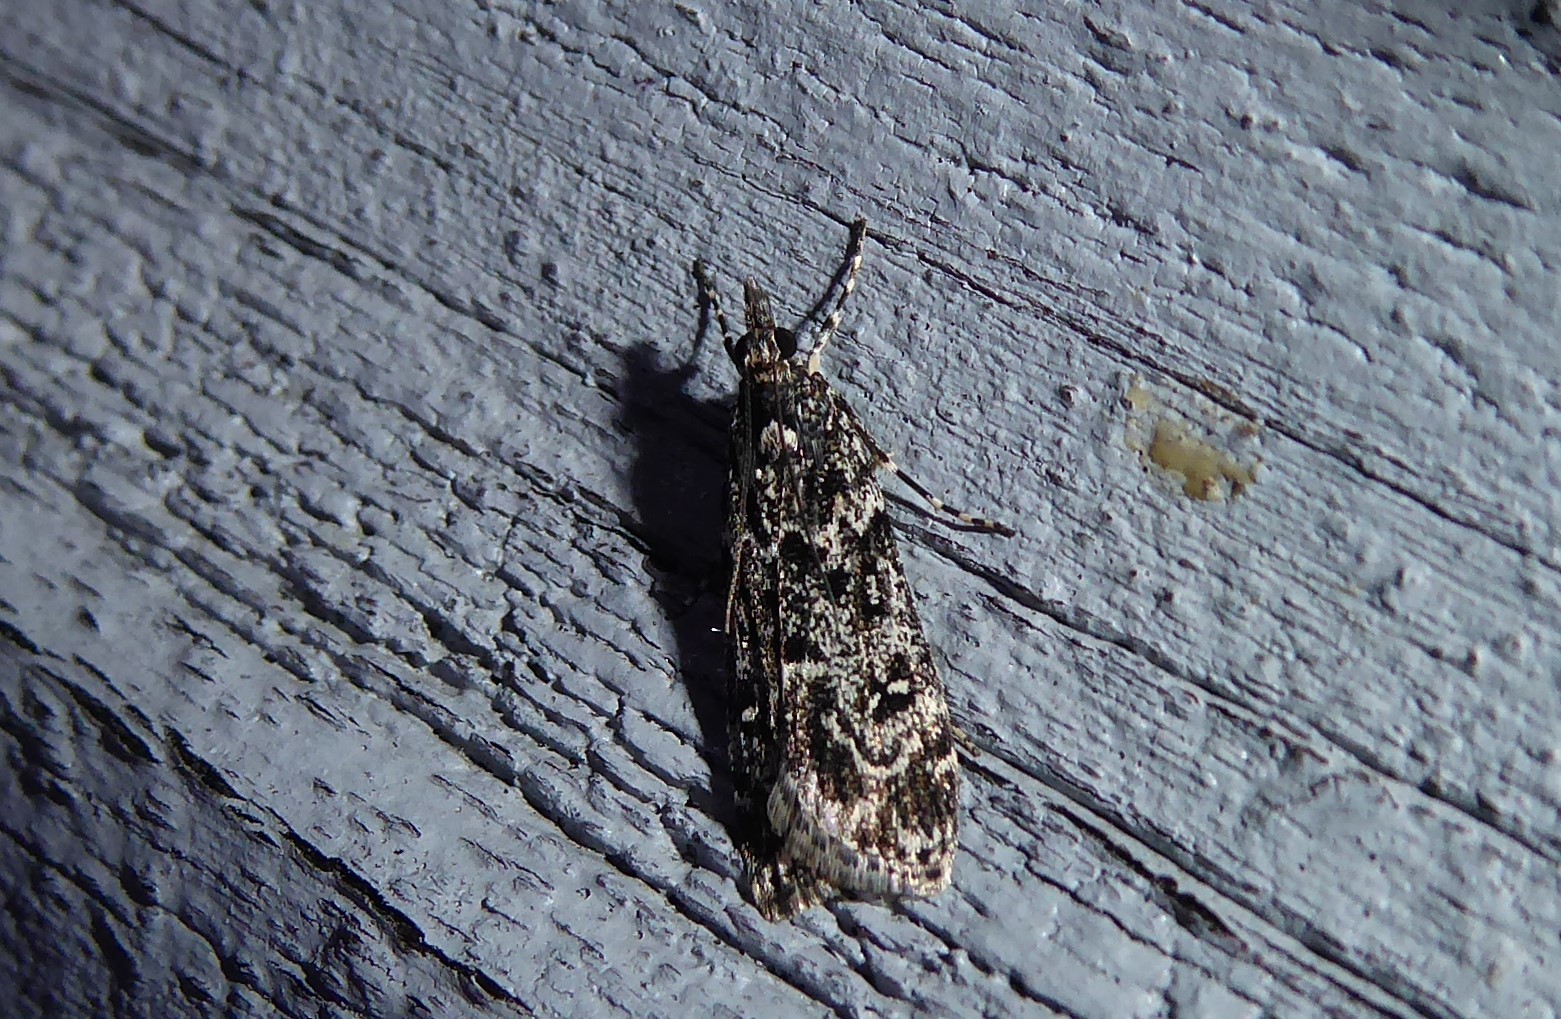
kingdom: Animalia
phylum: Arthropoda
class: Insecta
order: Lepidoptera
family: Crambidae
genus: Eudonia
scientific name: Eudonia philerga
